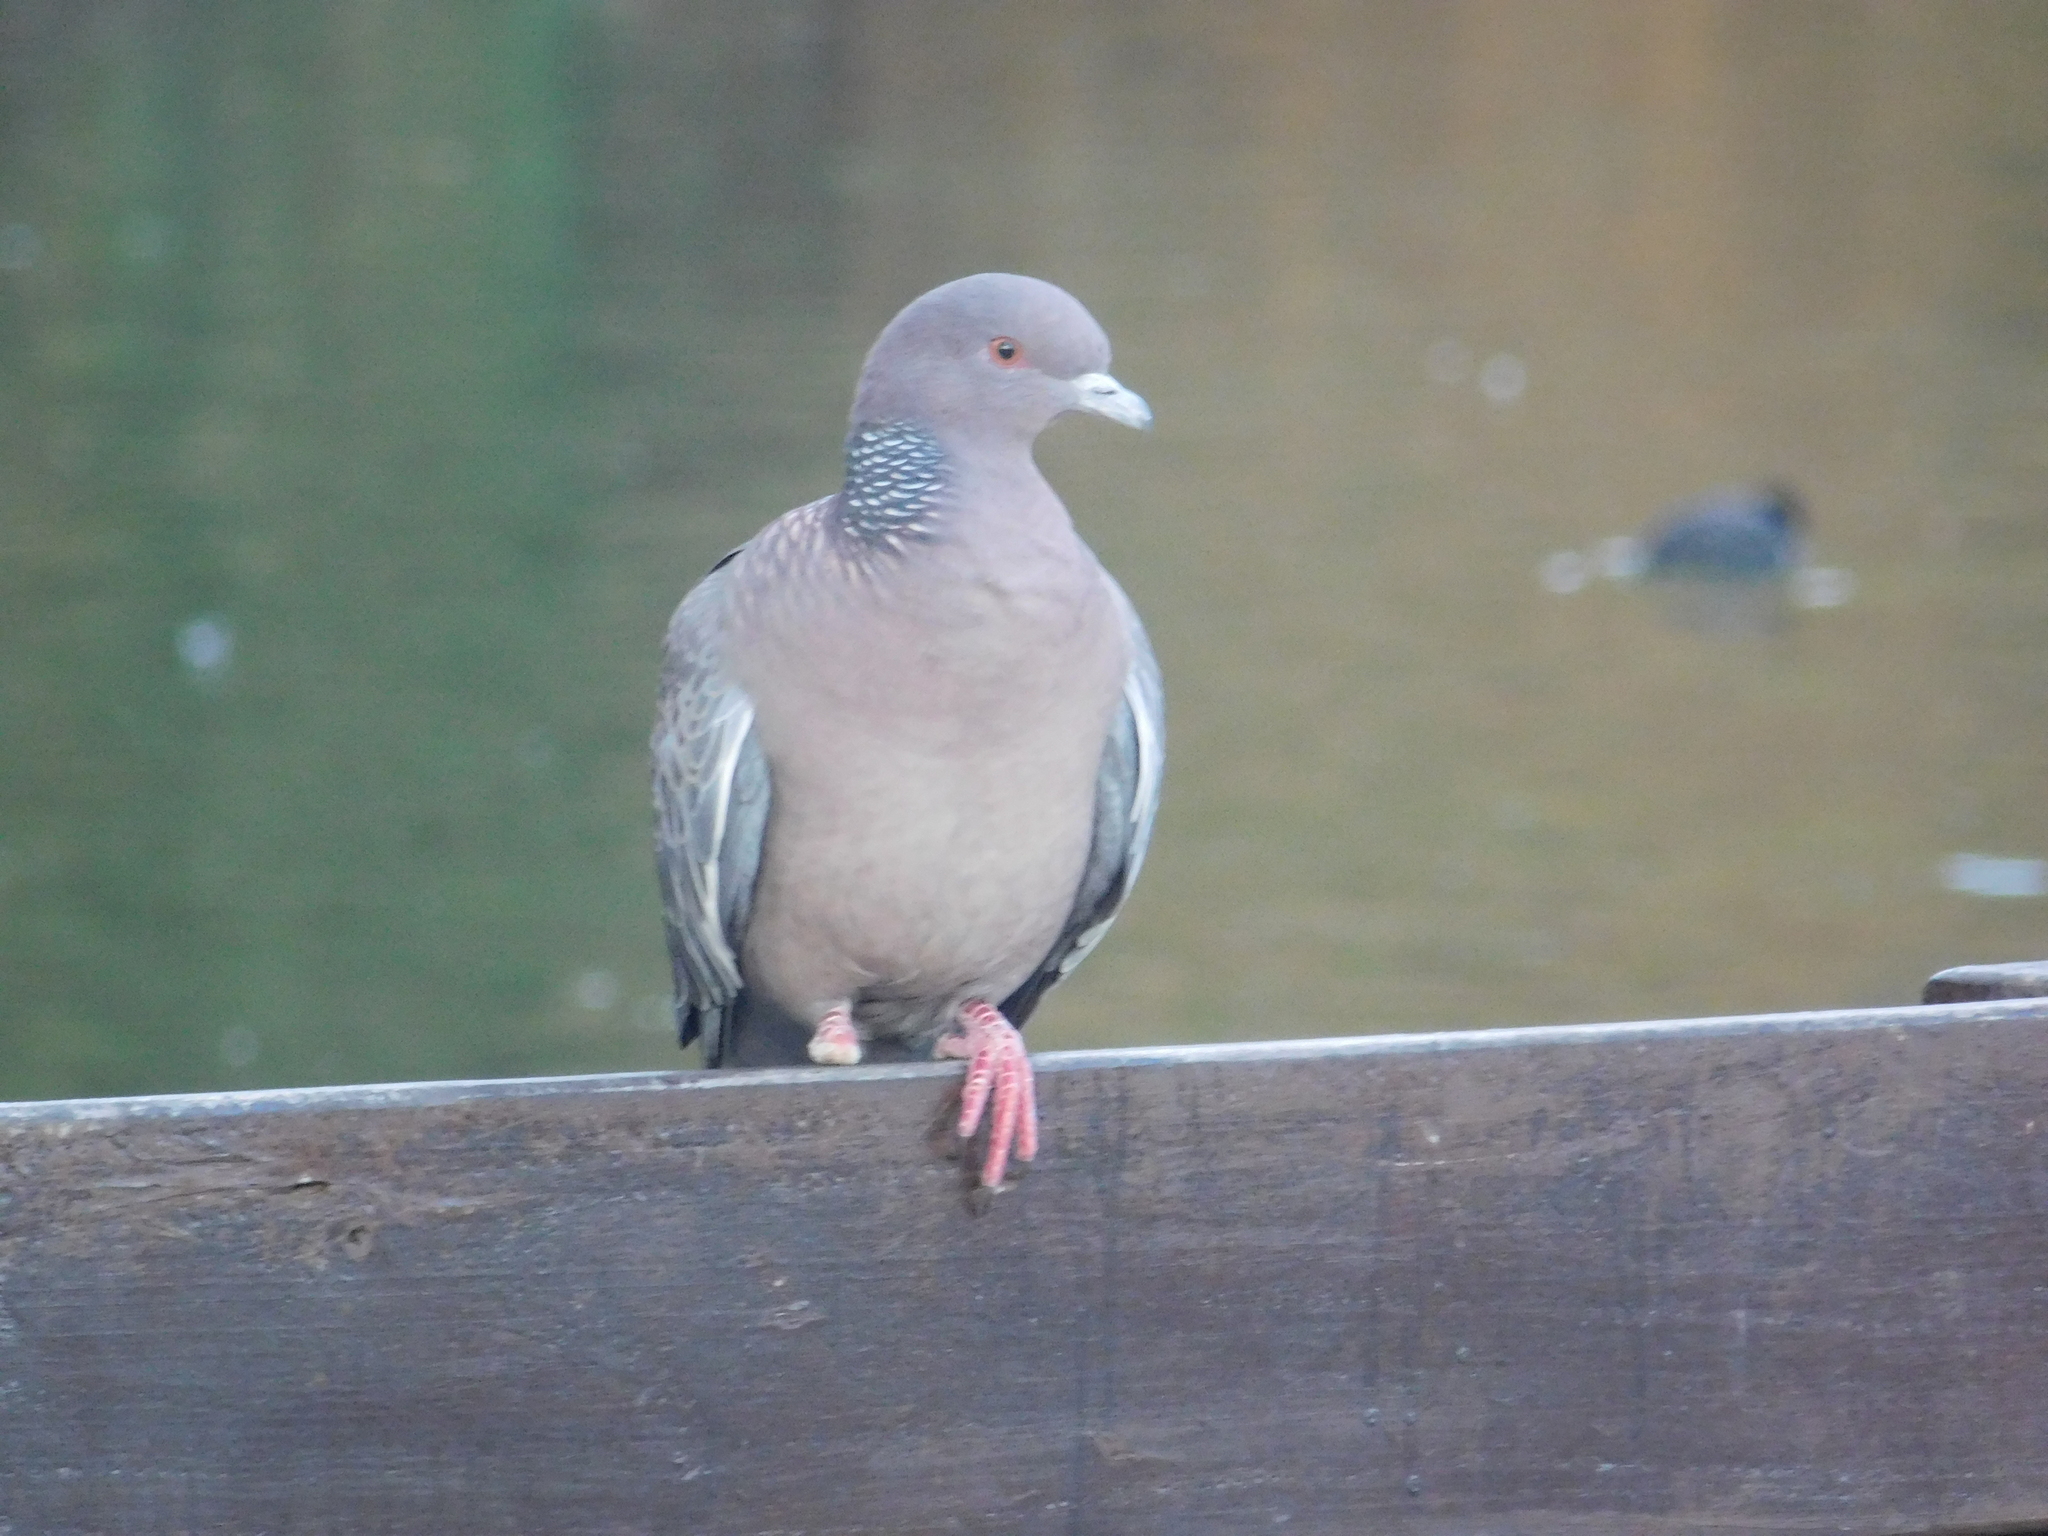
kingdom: Animalia
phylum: Chordata
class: Aves
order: Columbiformes
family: Columbidae
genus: Patagioenas
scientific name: Patagioenas picazuro
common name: Picazuro pigeon
